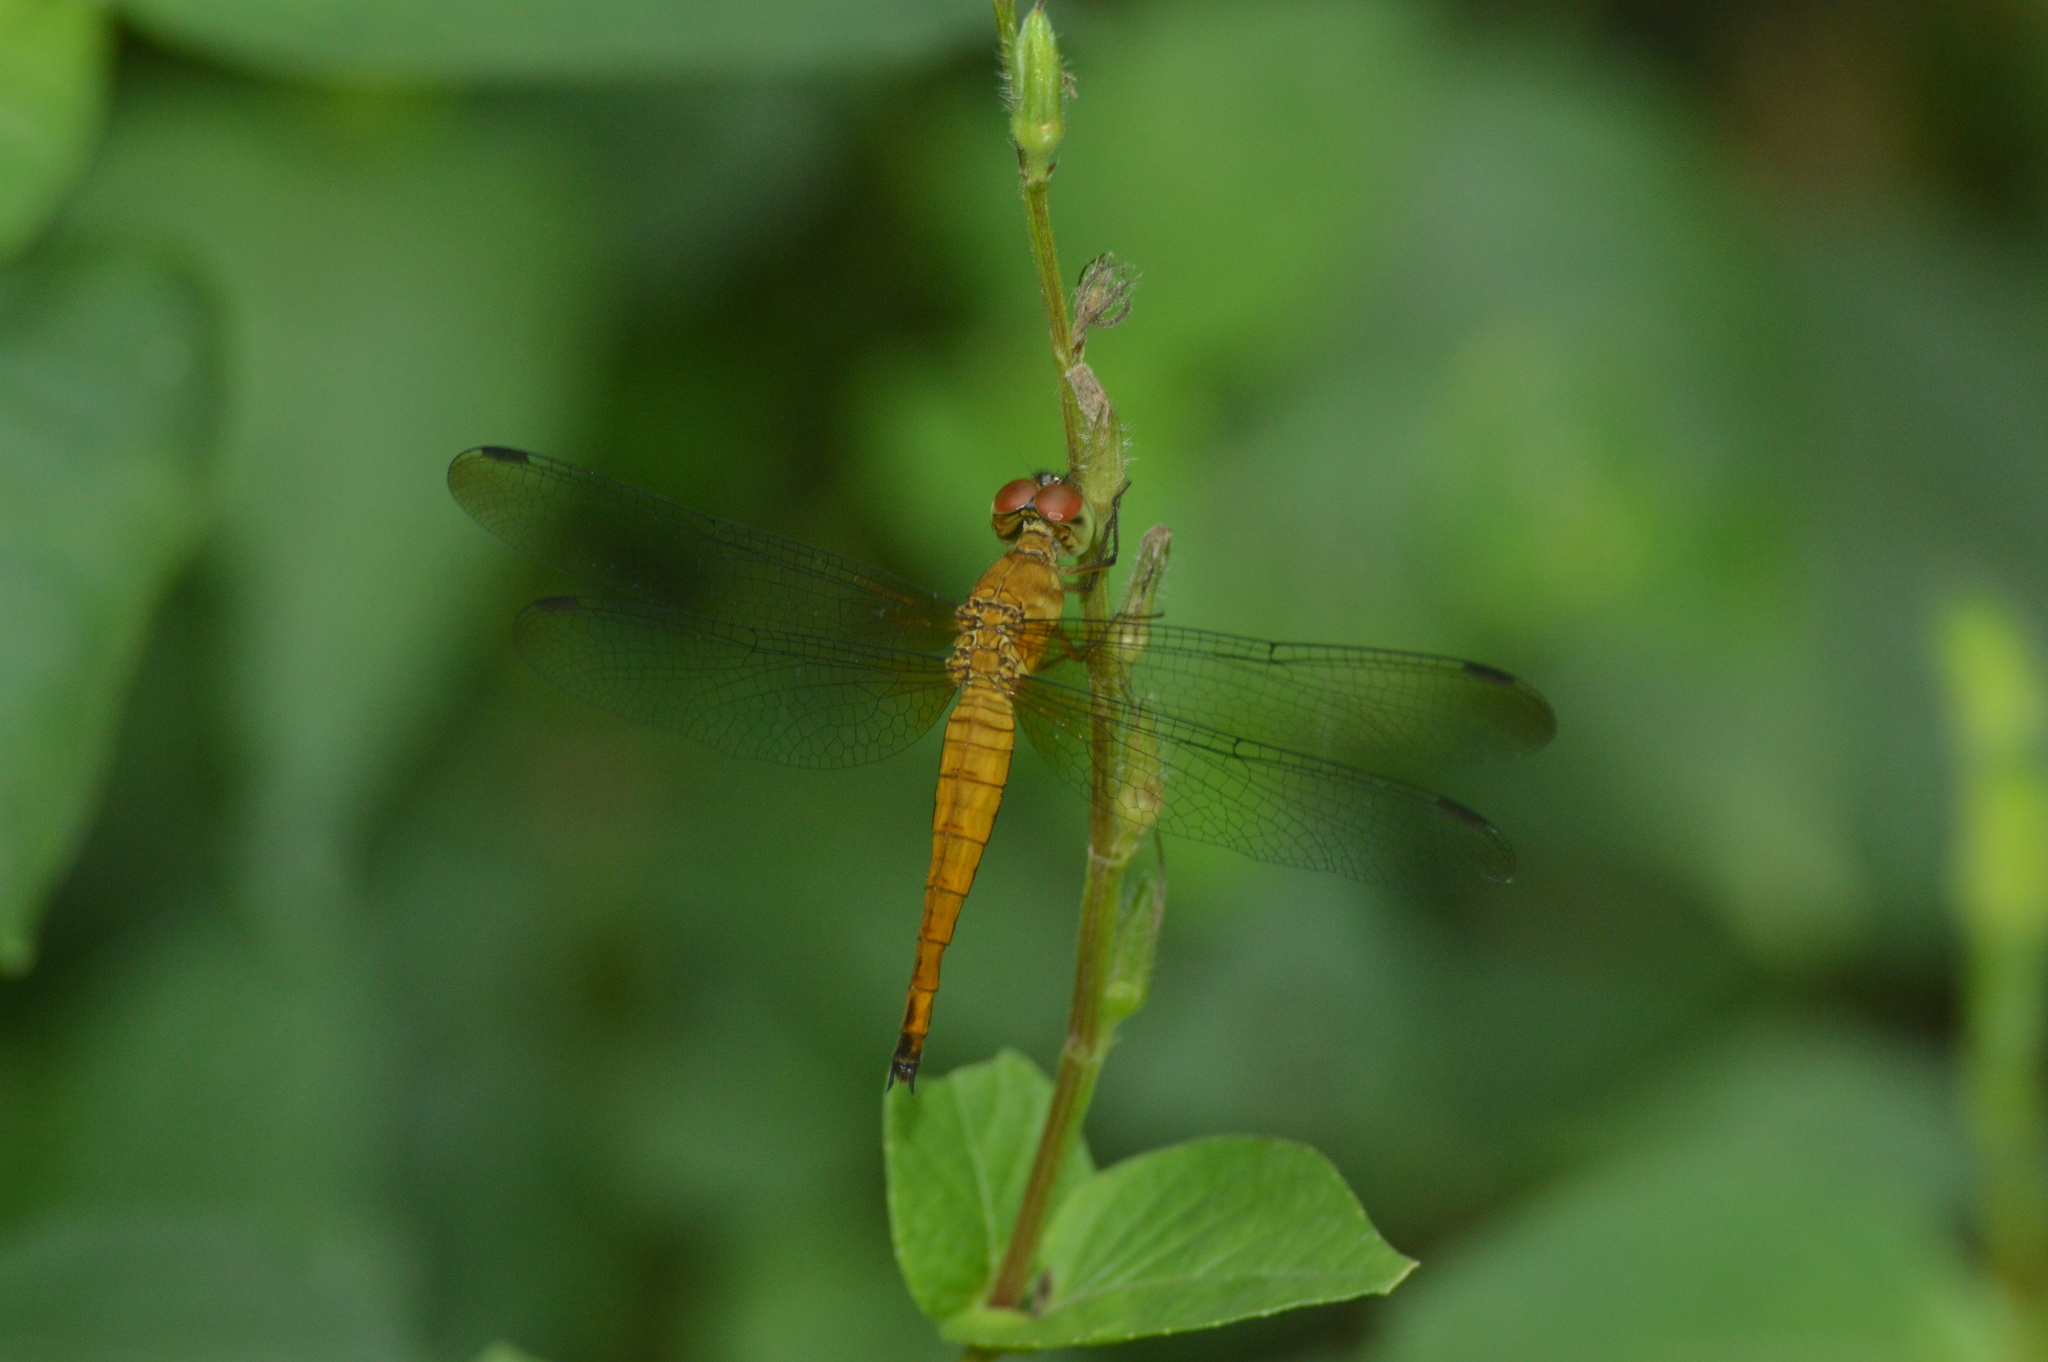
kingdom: Animalia
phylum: Arthropoda
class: Insecta
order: Odonata
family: Libellulidae
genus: Orchithemis
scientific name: Orchithemis pulcherrima
